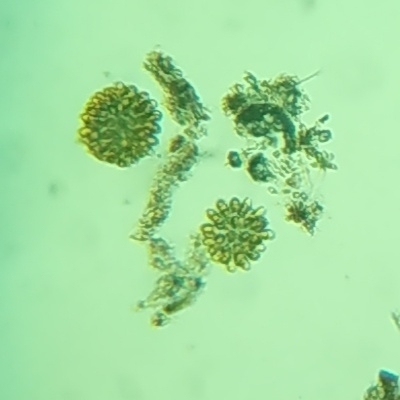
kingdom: Chromista
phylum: Ochrophyta
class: Synurophyceae
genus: Synura
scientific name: Synura
